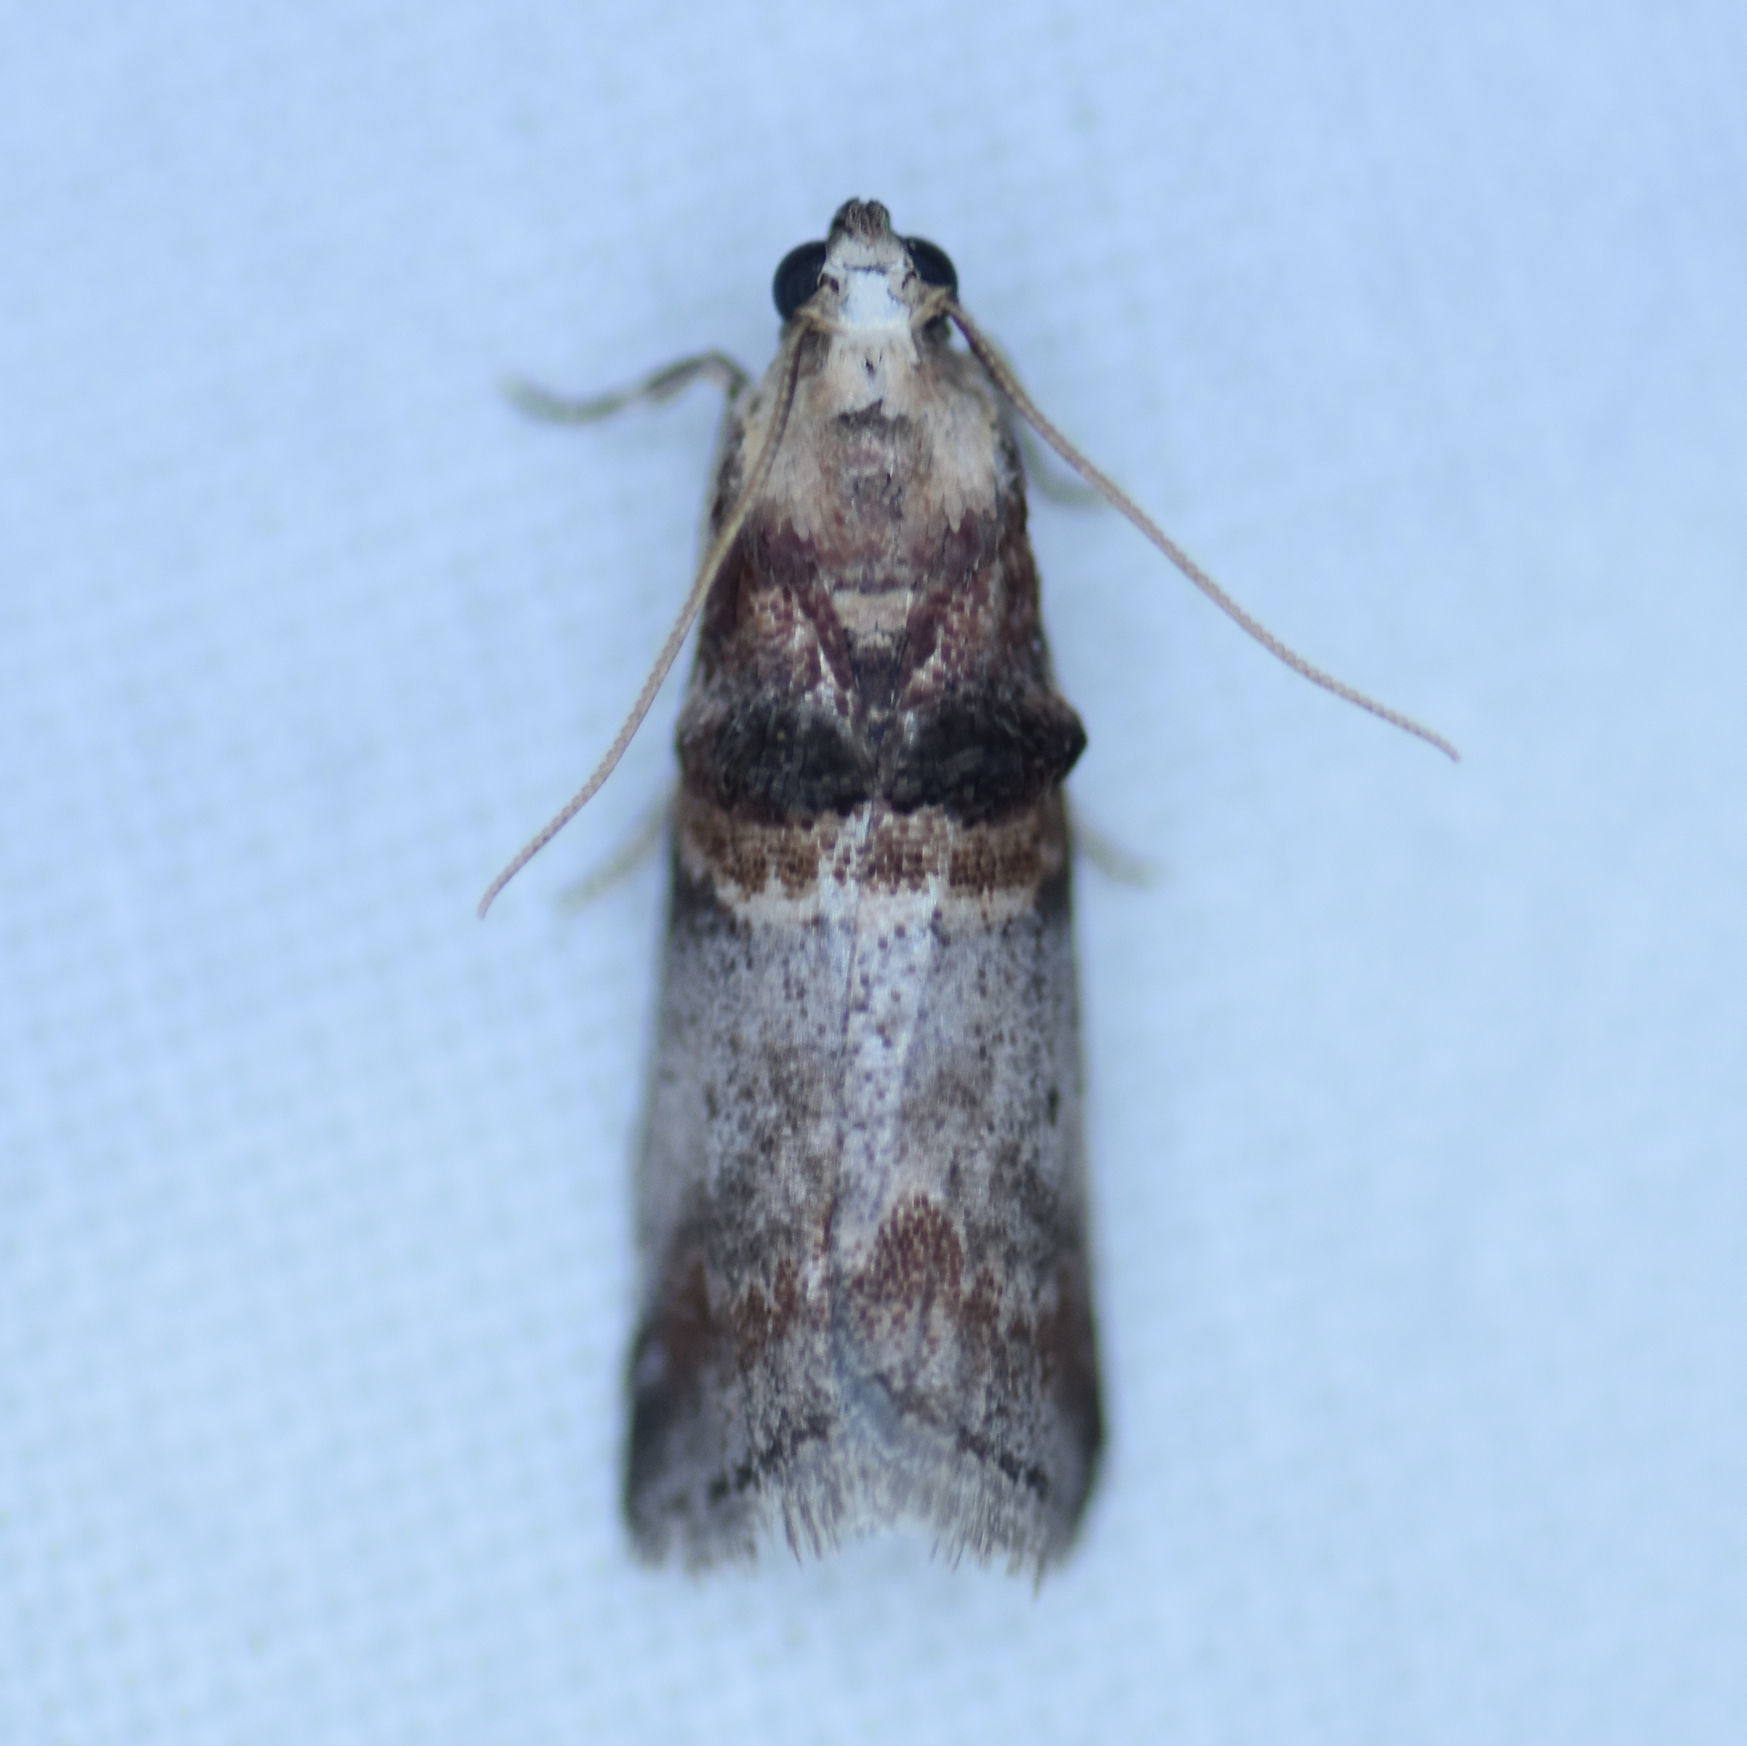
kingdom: Animalia
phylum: Arthropoda
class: Insecta
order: Lepidoptera
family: Pyralidae
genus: Acrobasis
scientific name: Acrobasis angusella
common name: Hickory leafstem borer moth
